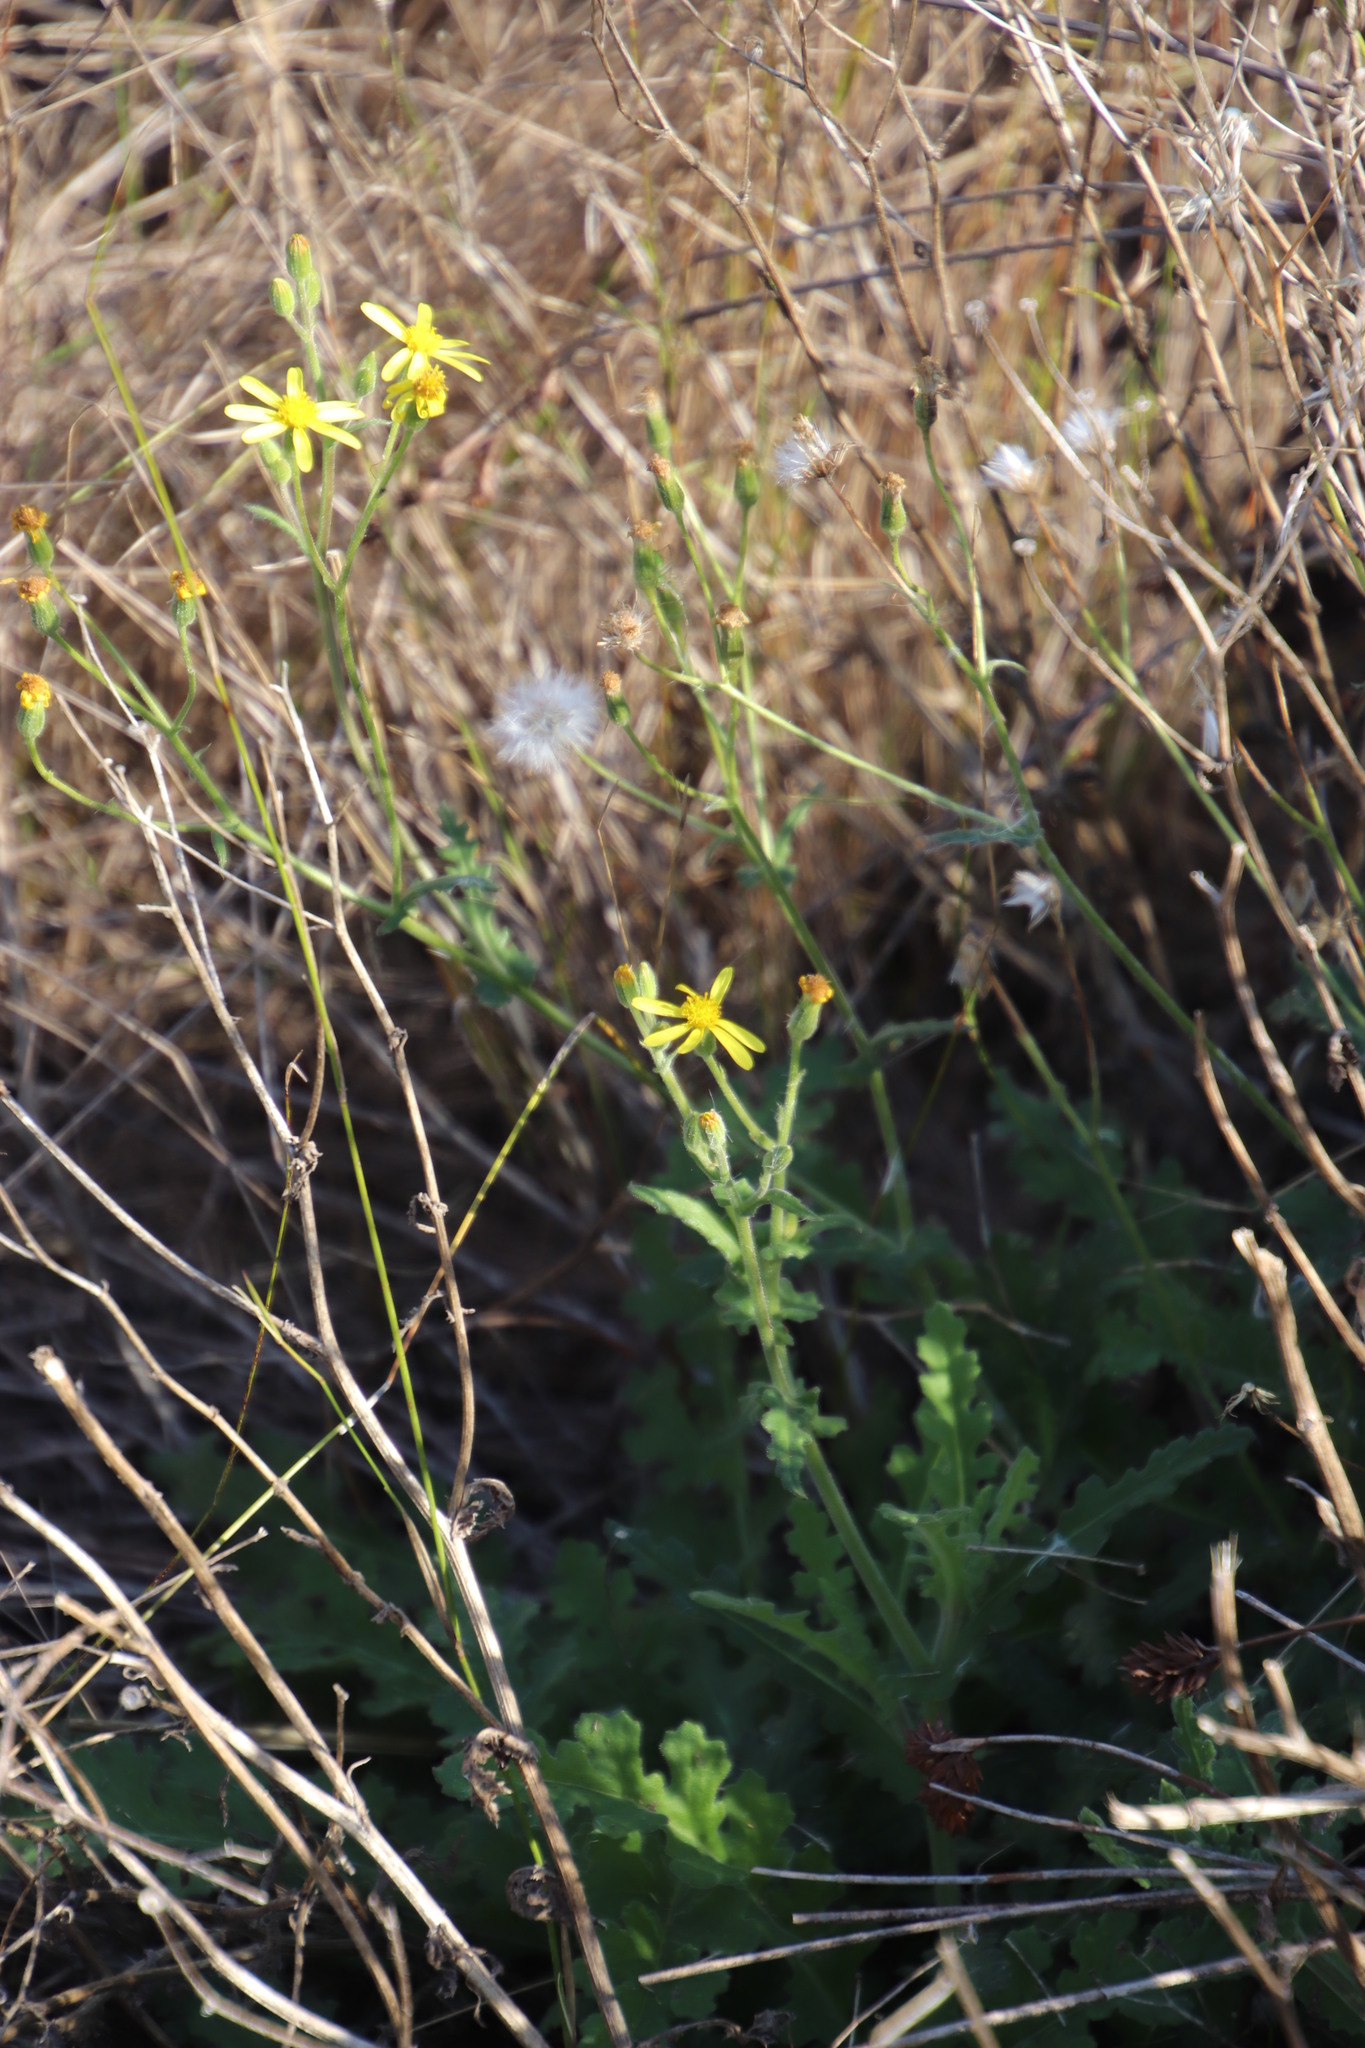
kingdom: Plantae
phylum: Tracheophyta
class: Magnoliopsida
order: Asterales
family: Asteraceae
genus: Senecio
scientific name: Senecio hastatus
